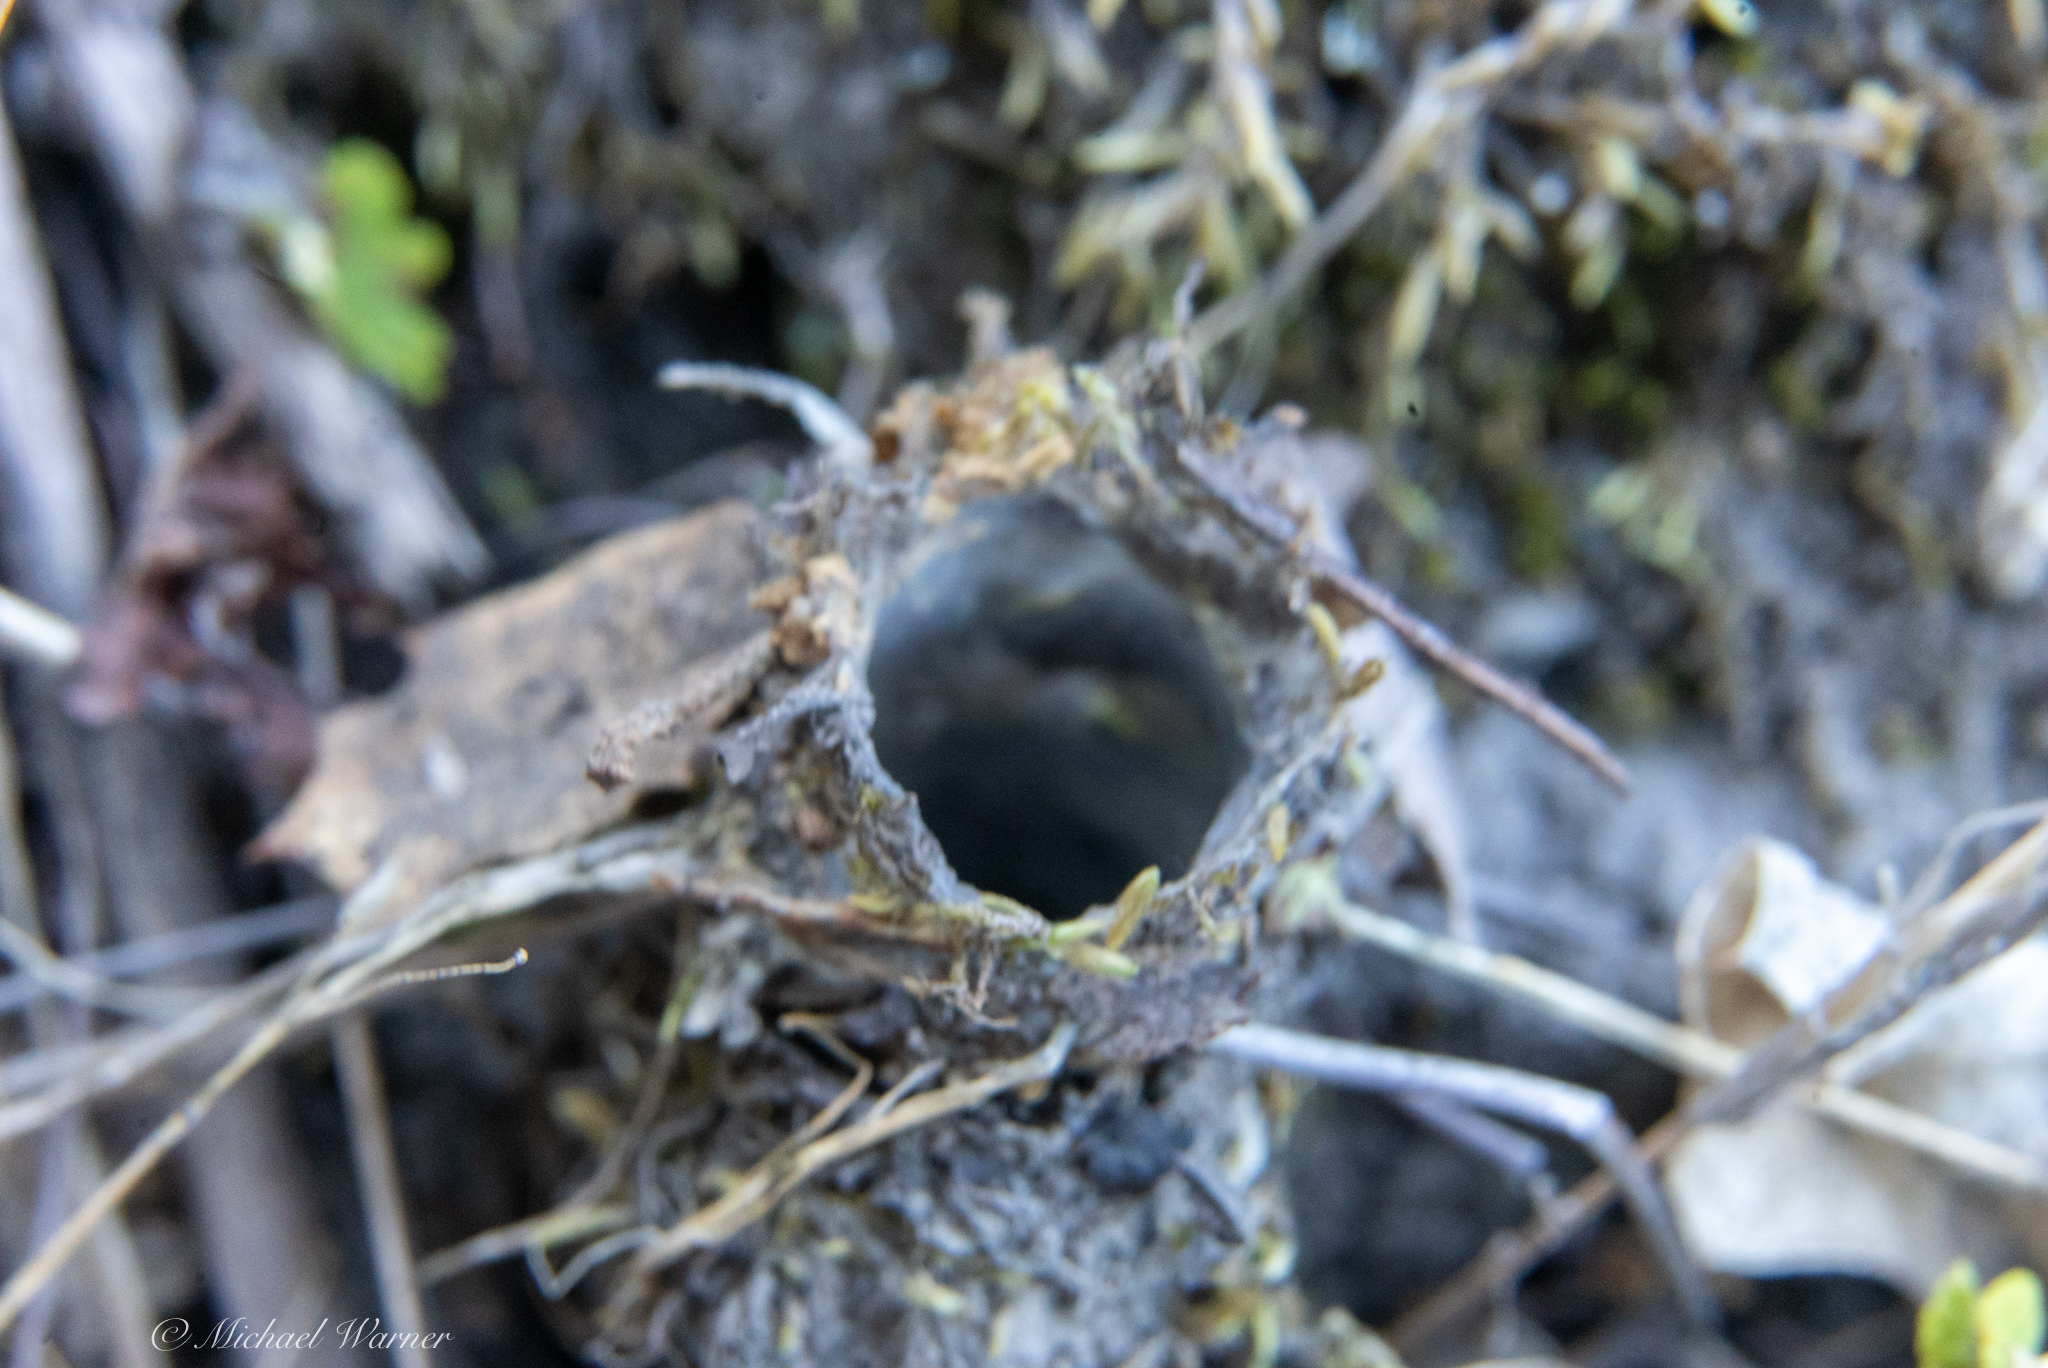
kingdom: Animalia
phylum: Arthropoda
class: Arachnida
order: Araneae
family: Antrodiaetidae
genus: Atypoides
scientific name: Atypoides riversi
